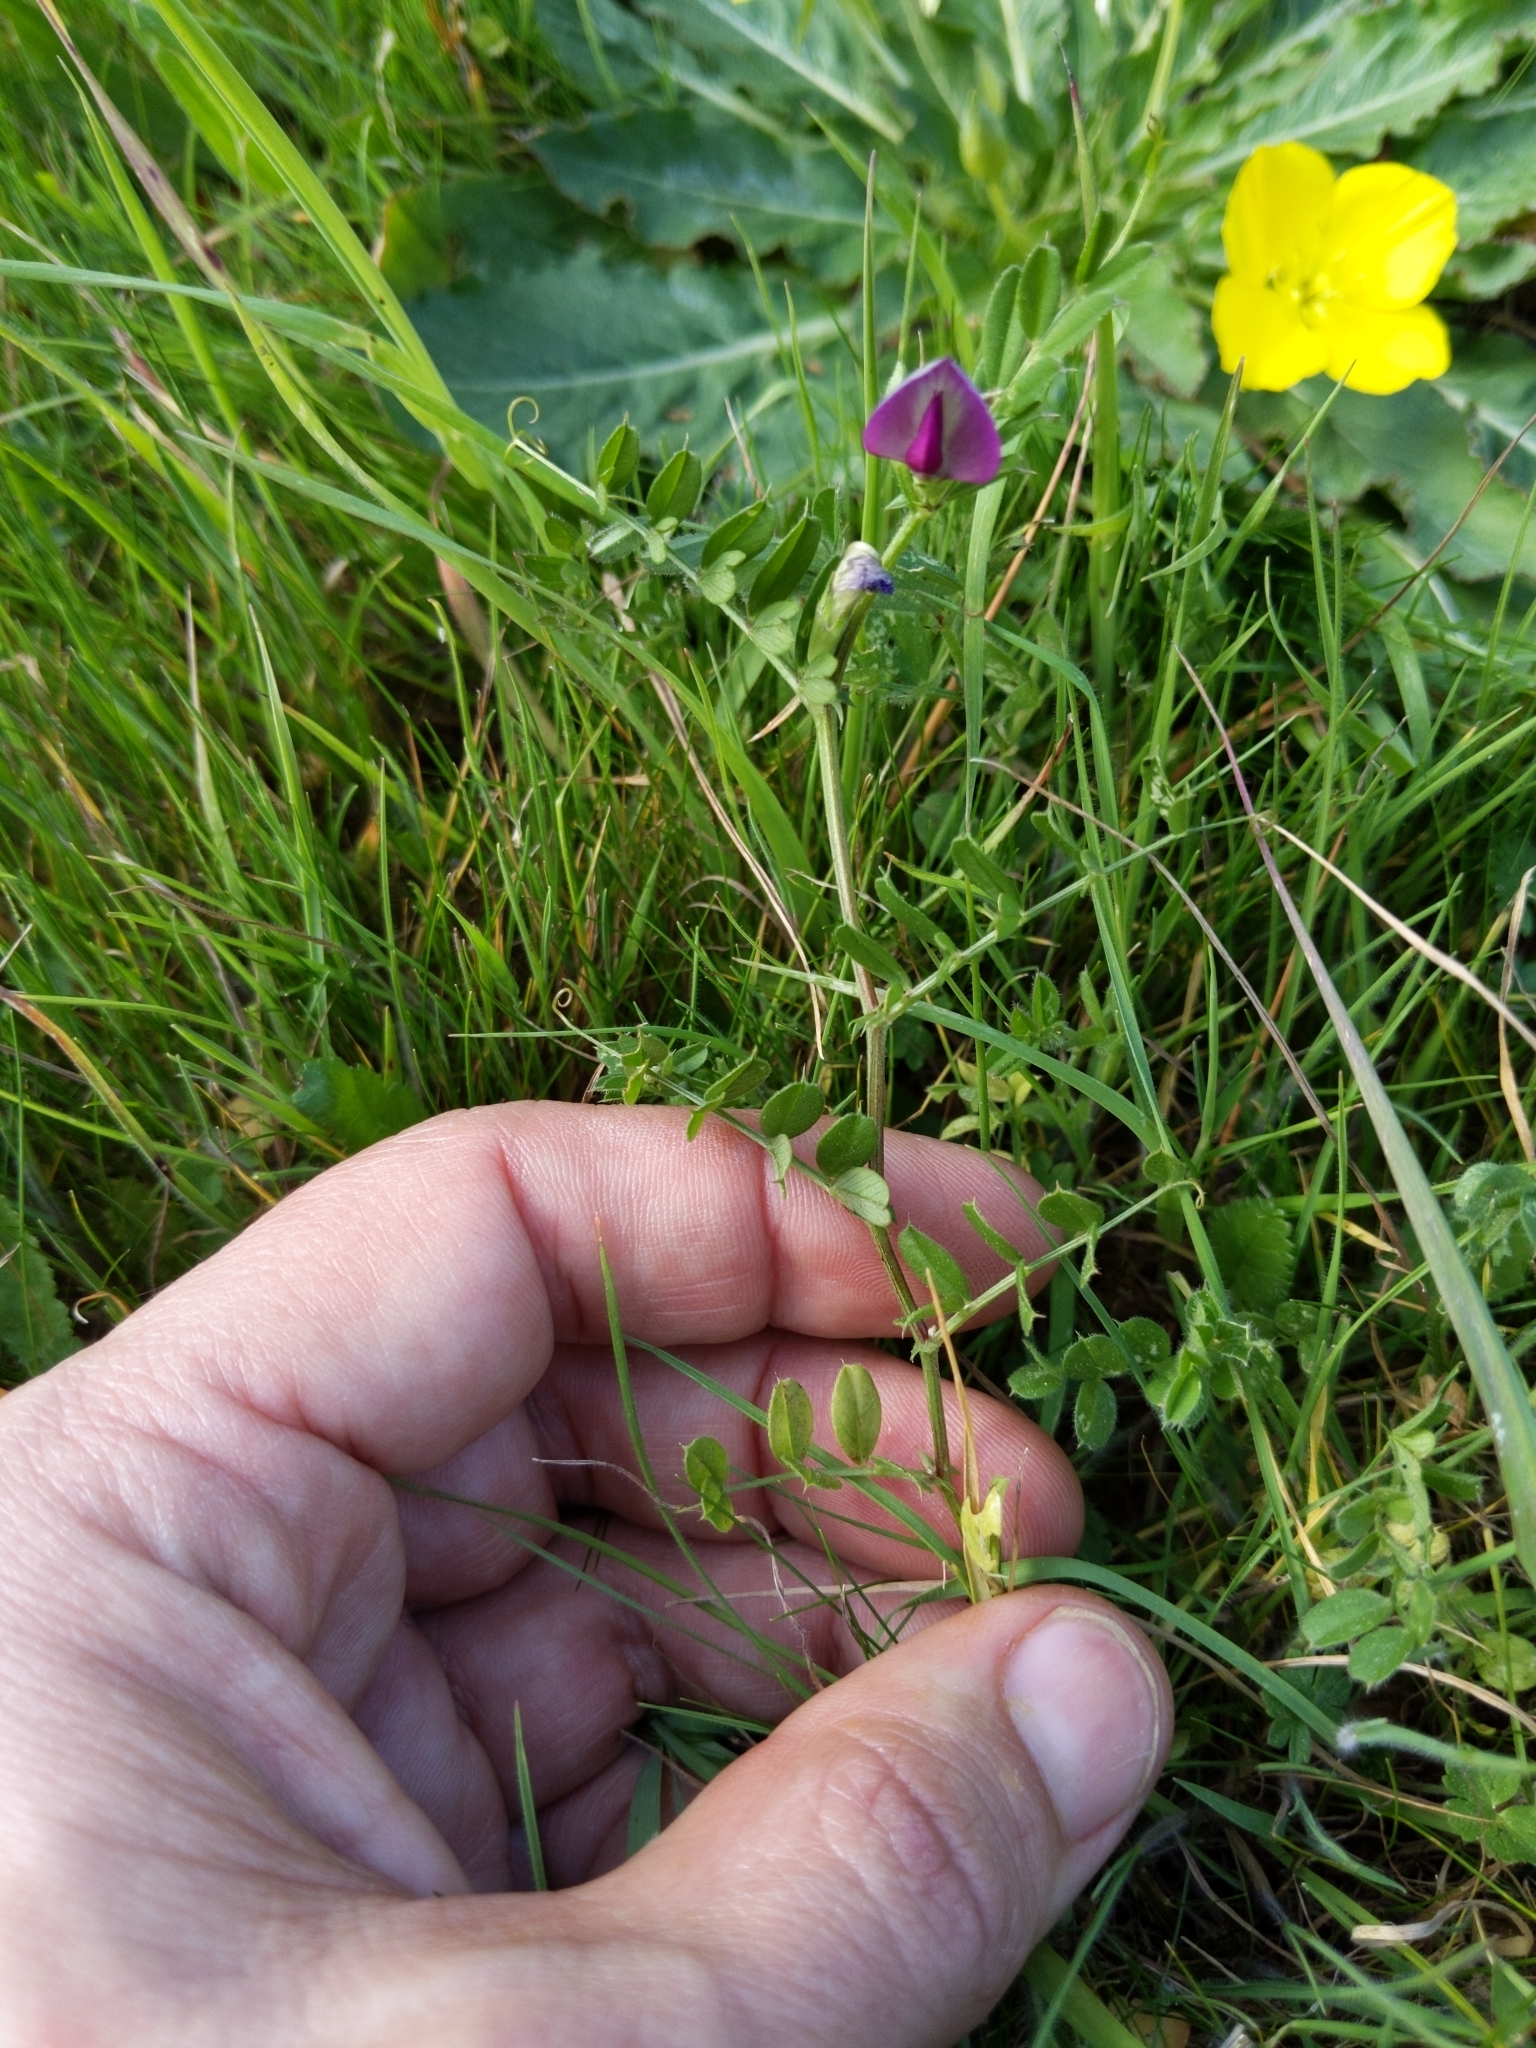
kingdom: Plantae
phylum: Tracheophyta
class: Magnoliopsida
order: Fabales
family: Fabaceae
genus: Vicia
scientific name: Vicia sativa
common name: Garden vetch
